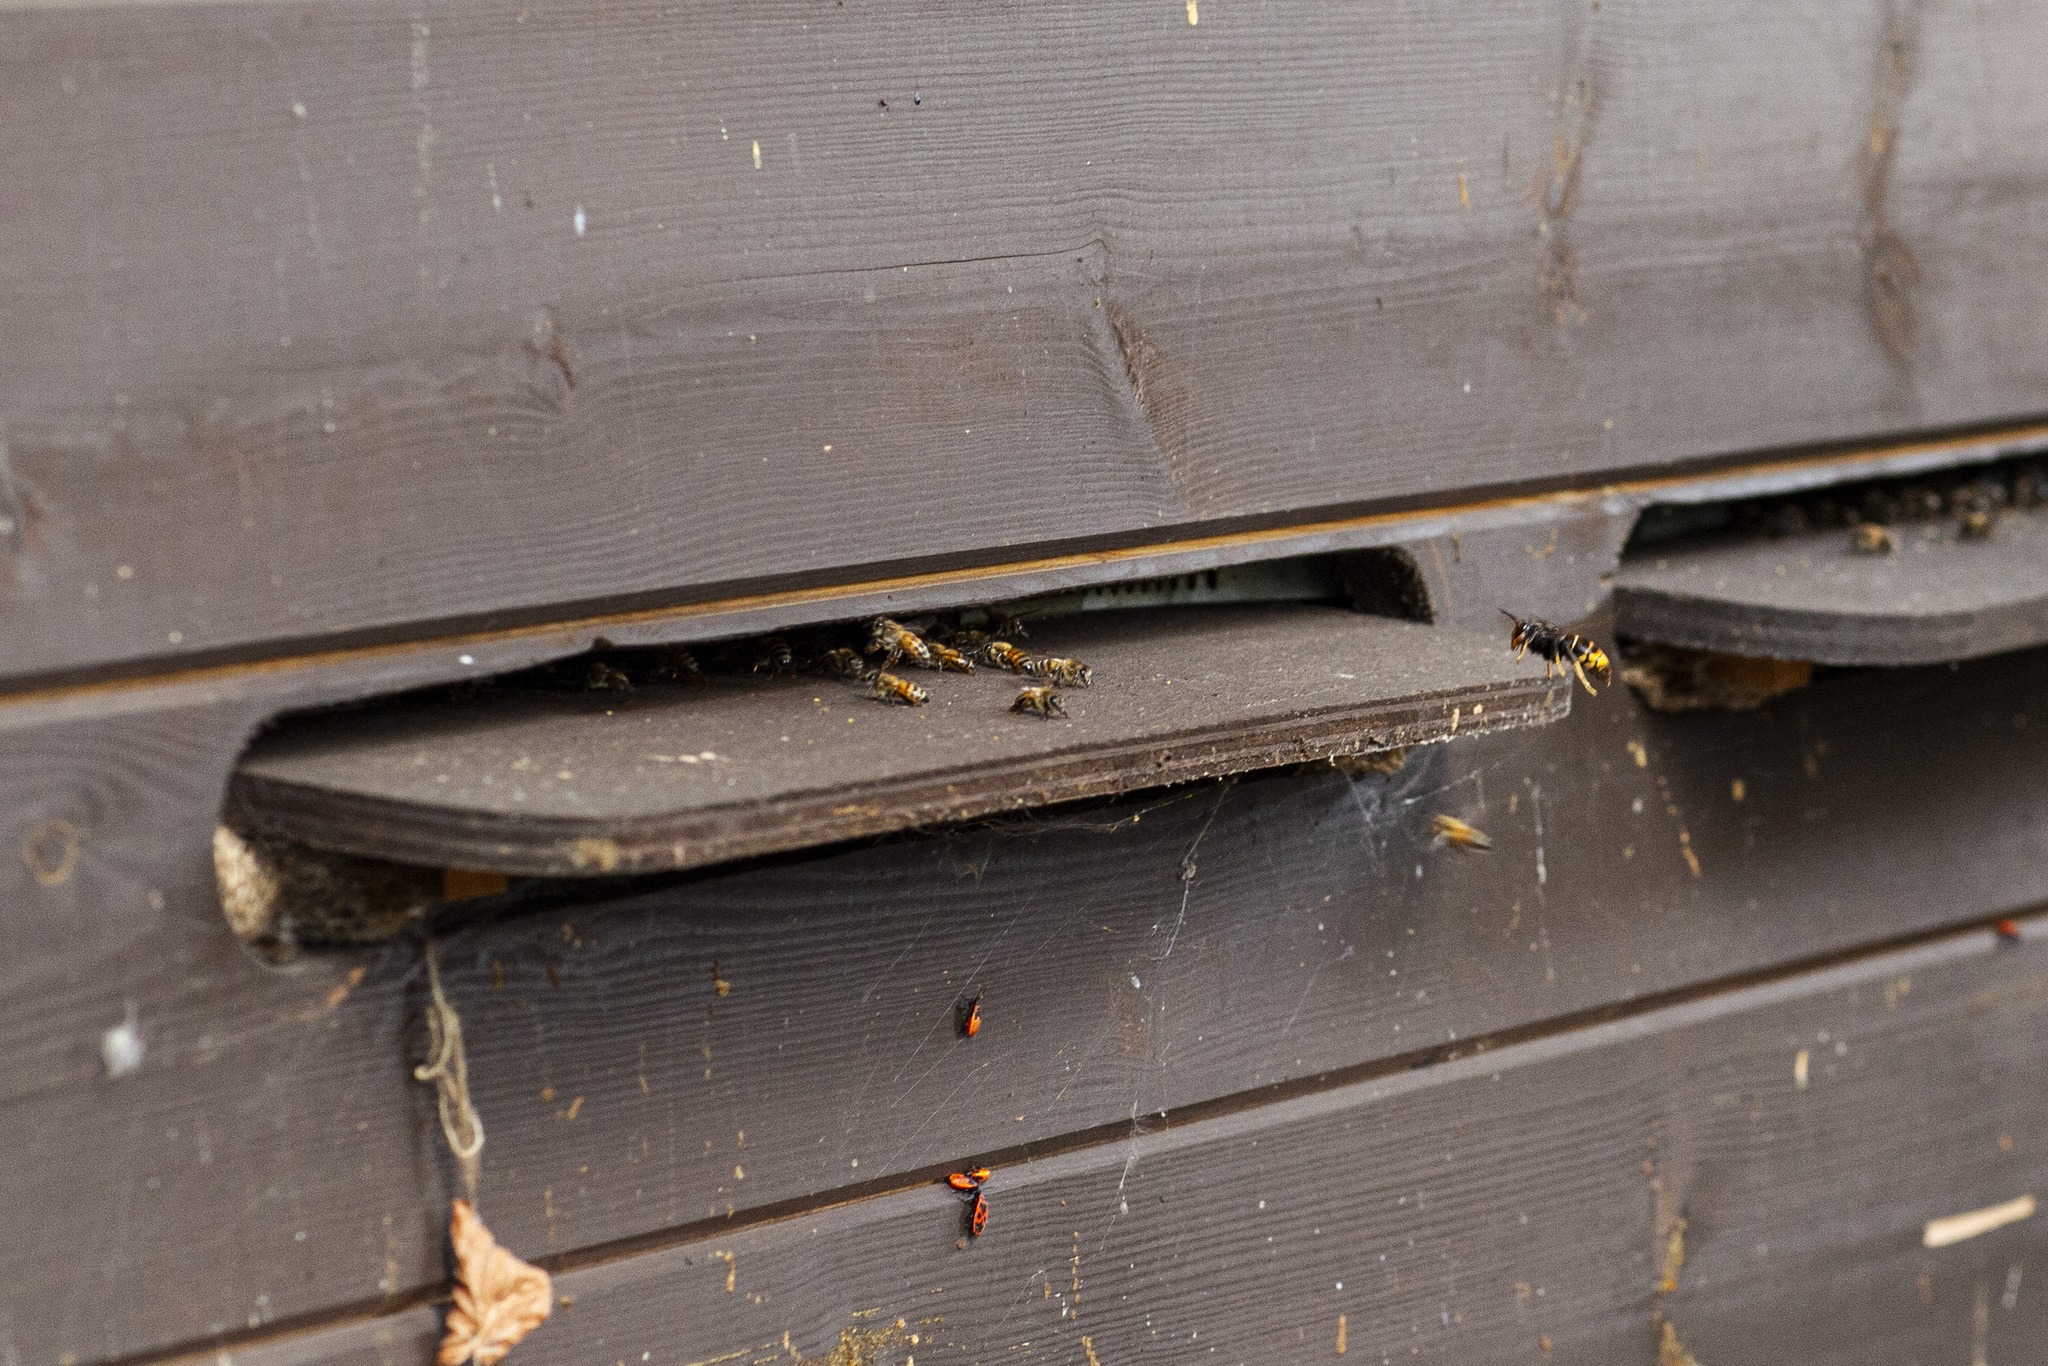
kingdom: Animalia
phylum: Arthropoda
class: Insecta
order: Hymenoptera
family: Vespidae
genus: Vespa
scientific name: Vespa velutina
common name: Asian hornet
